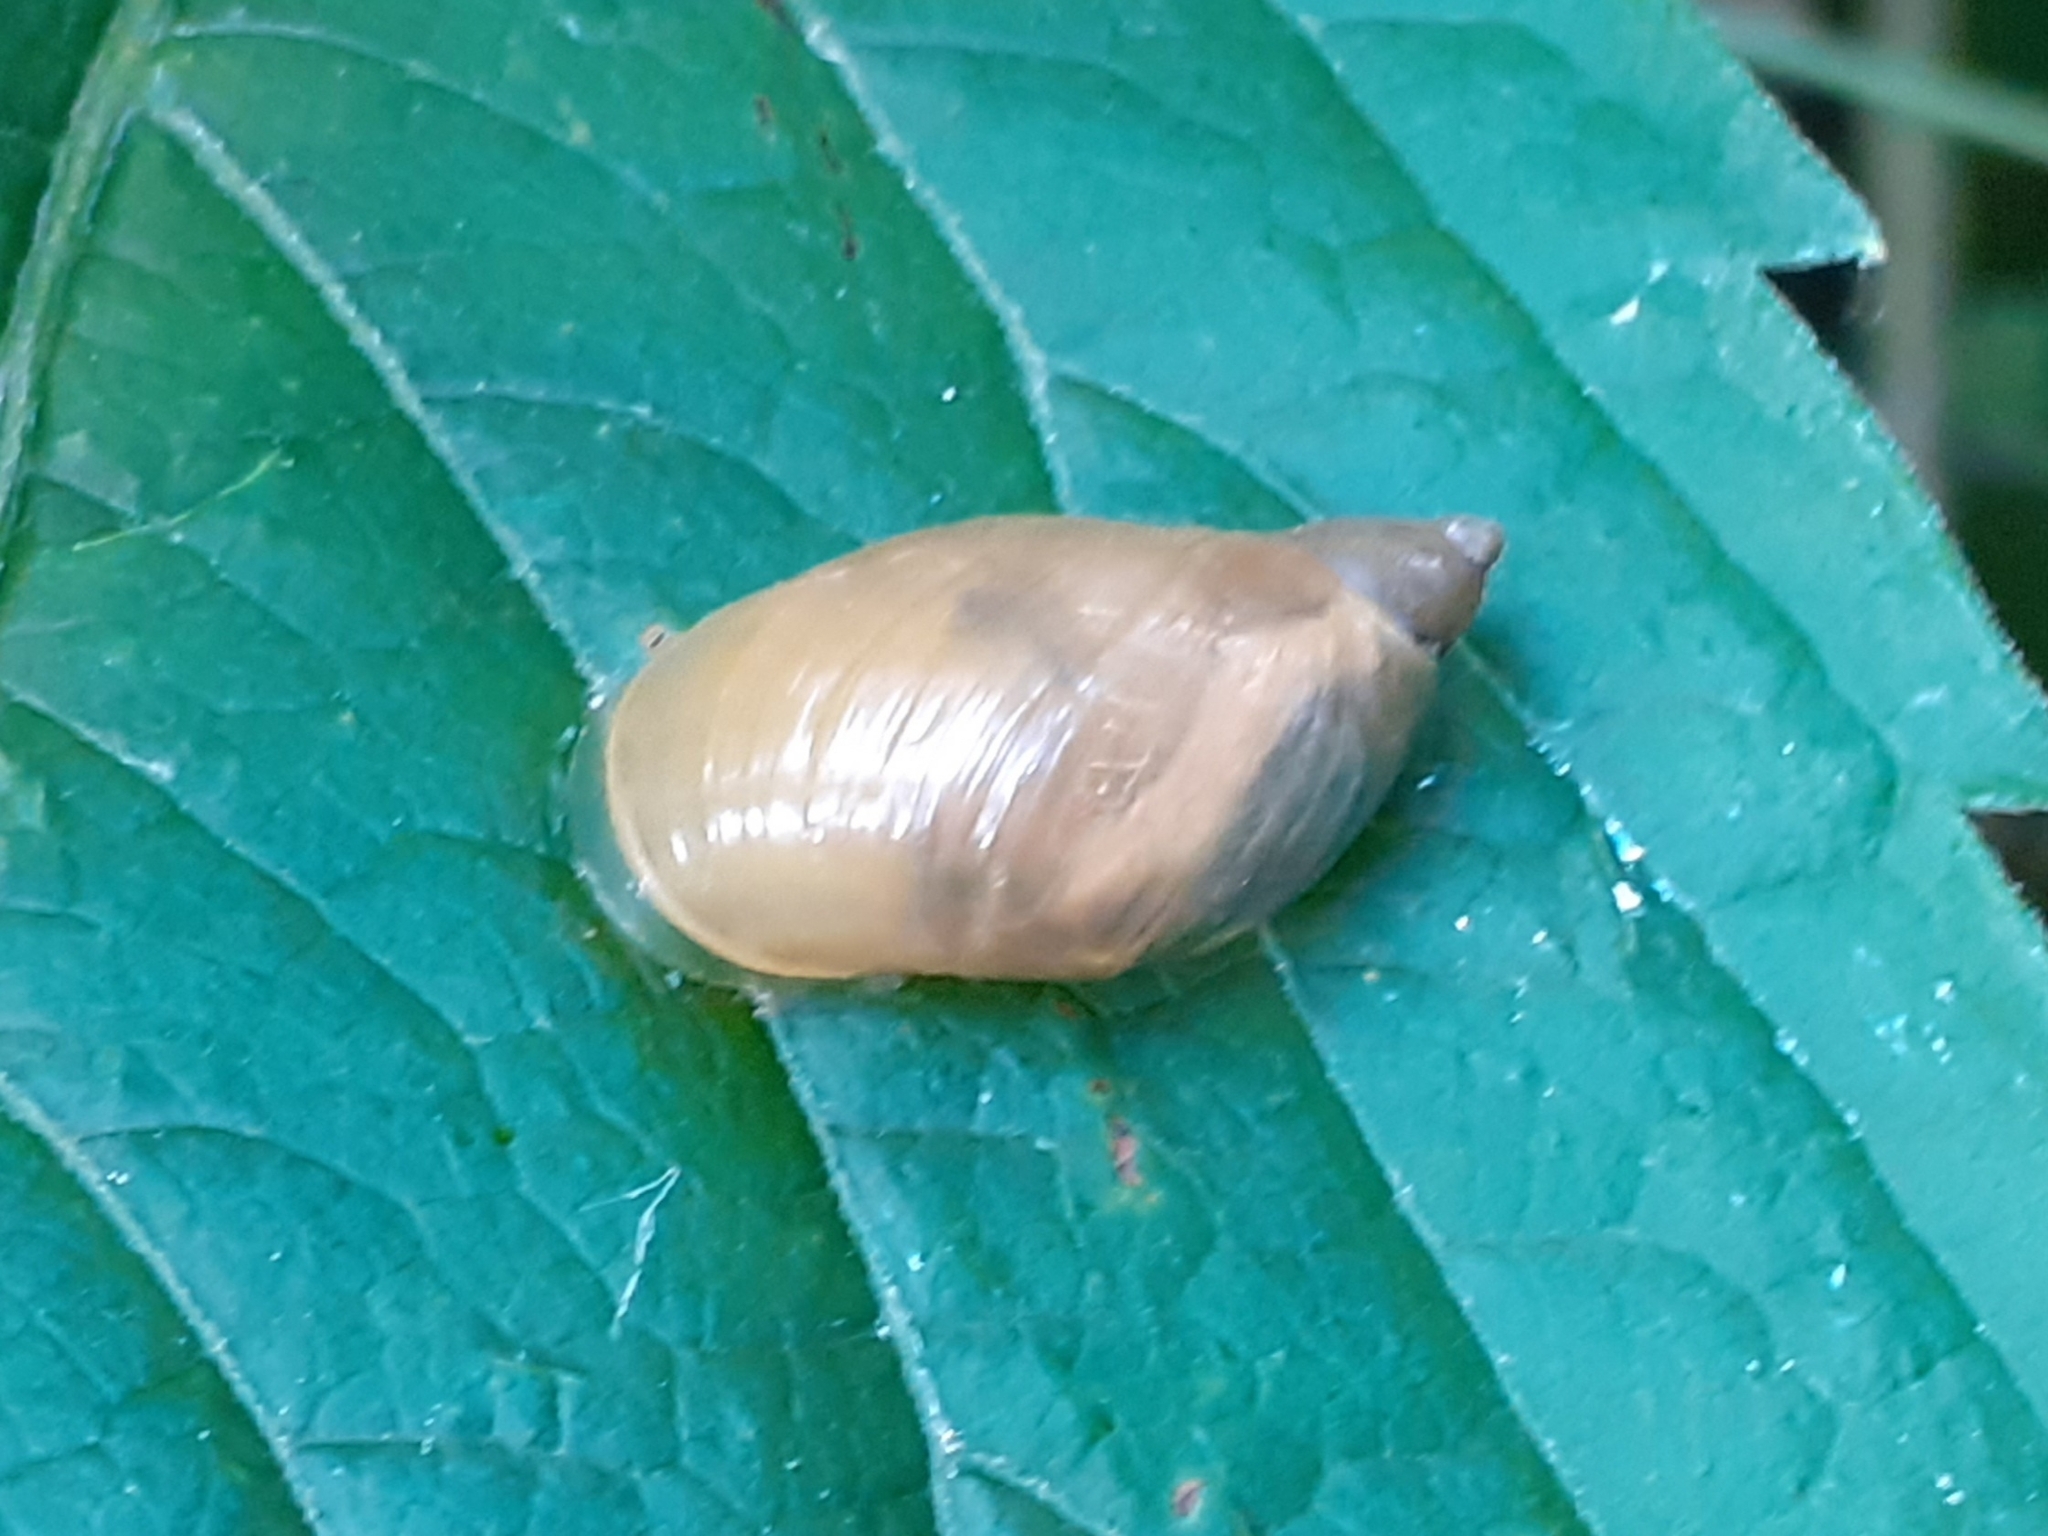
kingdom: Animalia
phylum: Mollusca
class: Gastropoda
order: Stylommatophora
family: Succineidae
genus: Succinea
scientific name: Succinea putris
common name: European ambersnail
